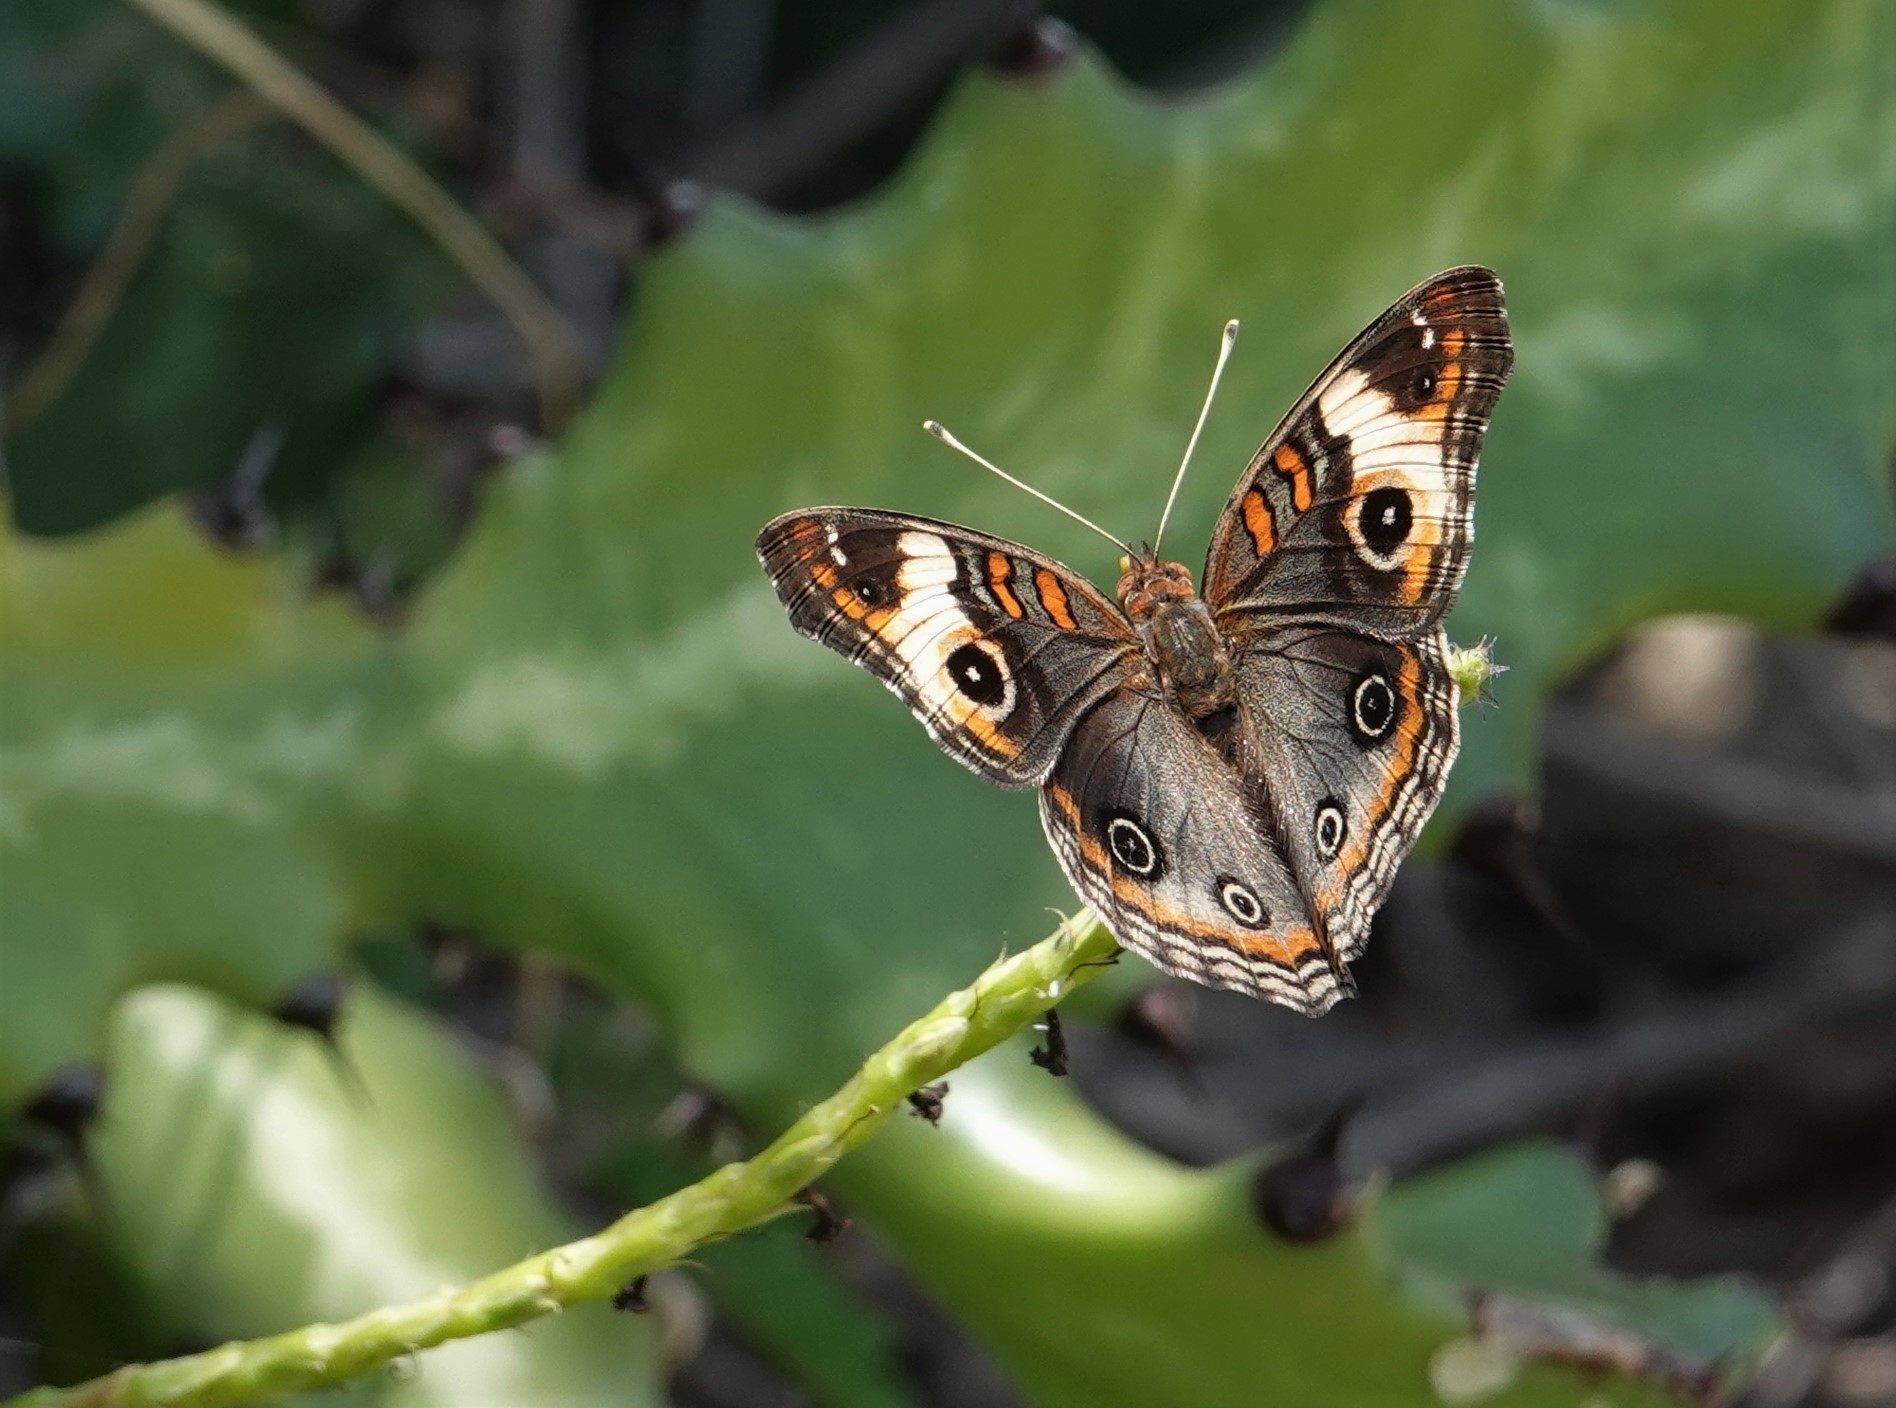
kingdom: Animalia
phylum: Arthropoda
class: Insecta
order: Lepidoptera
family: Nymphalidae
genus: Junonia
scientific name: Junonia lavinia
